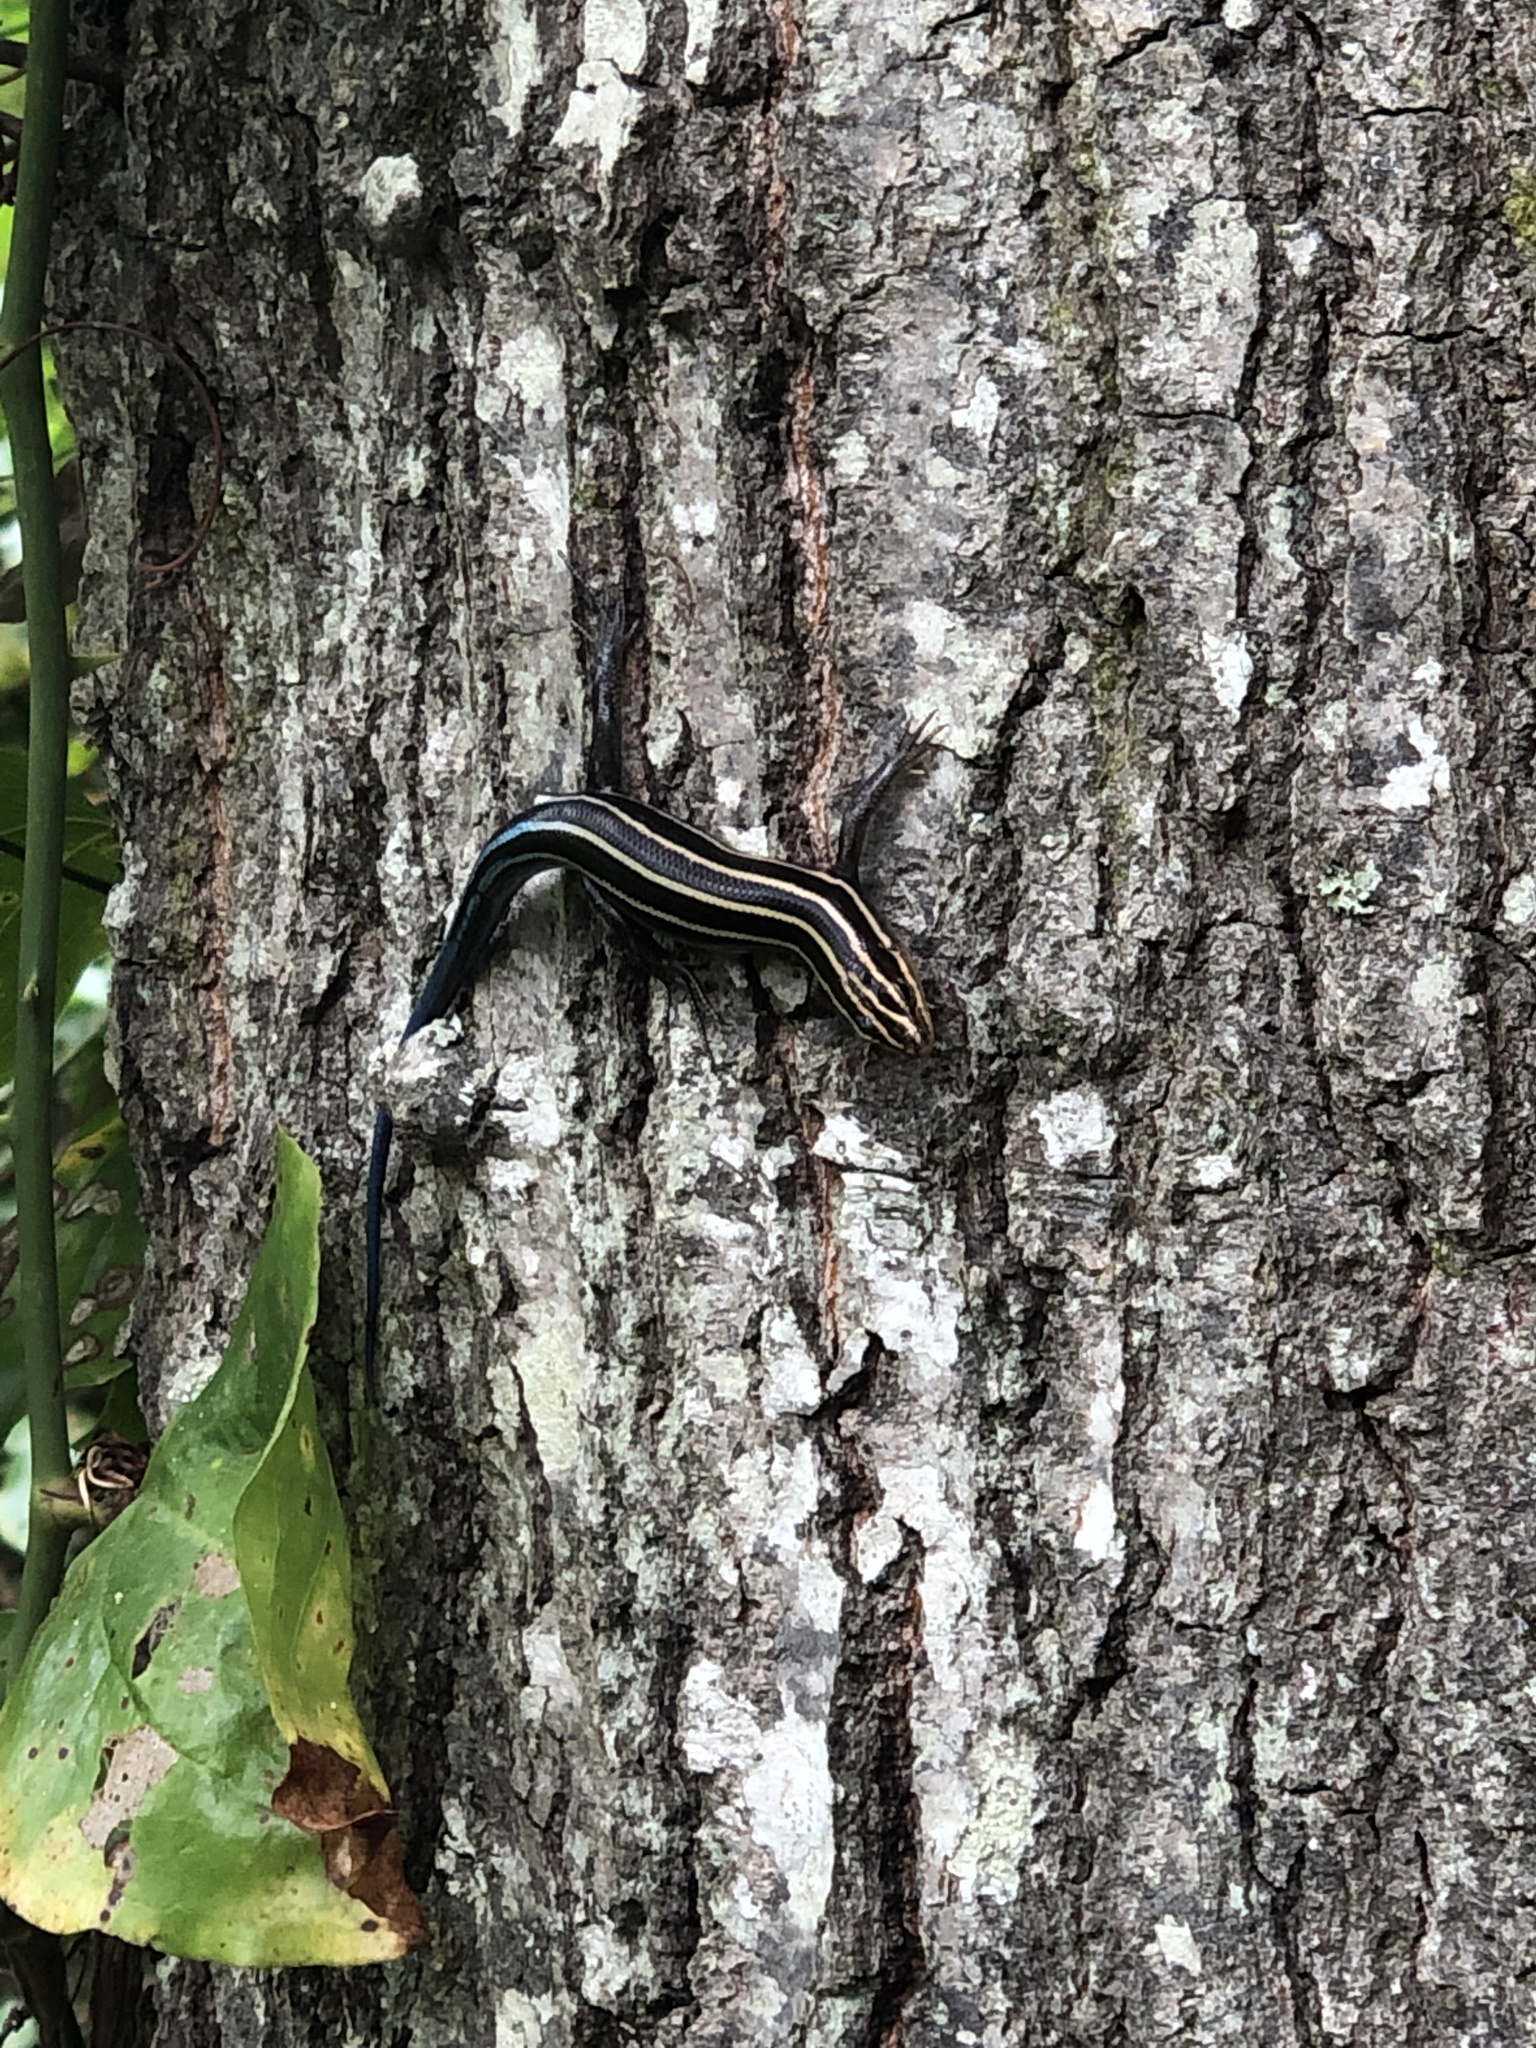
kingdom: Animalia
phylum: Chordata
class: Squamata
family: Scincidae
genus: Plestiodon
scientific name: Plestiodon fasciatus
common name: Five-lined skink
